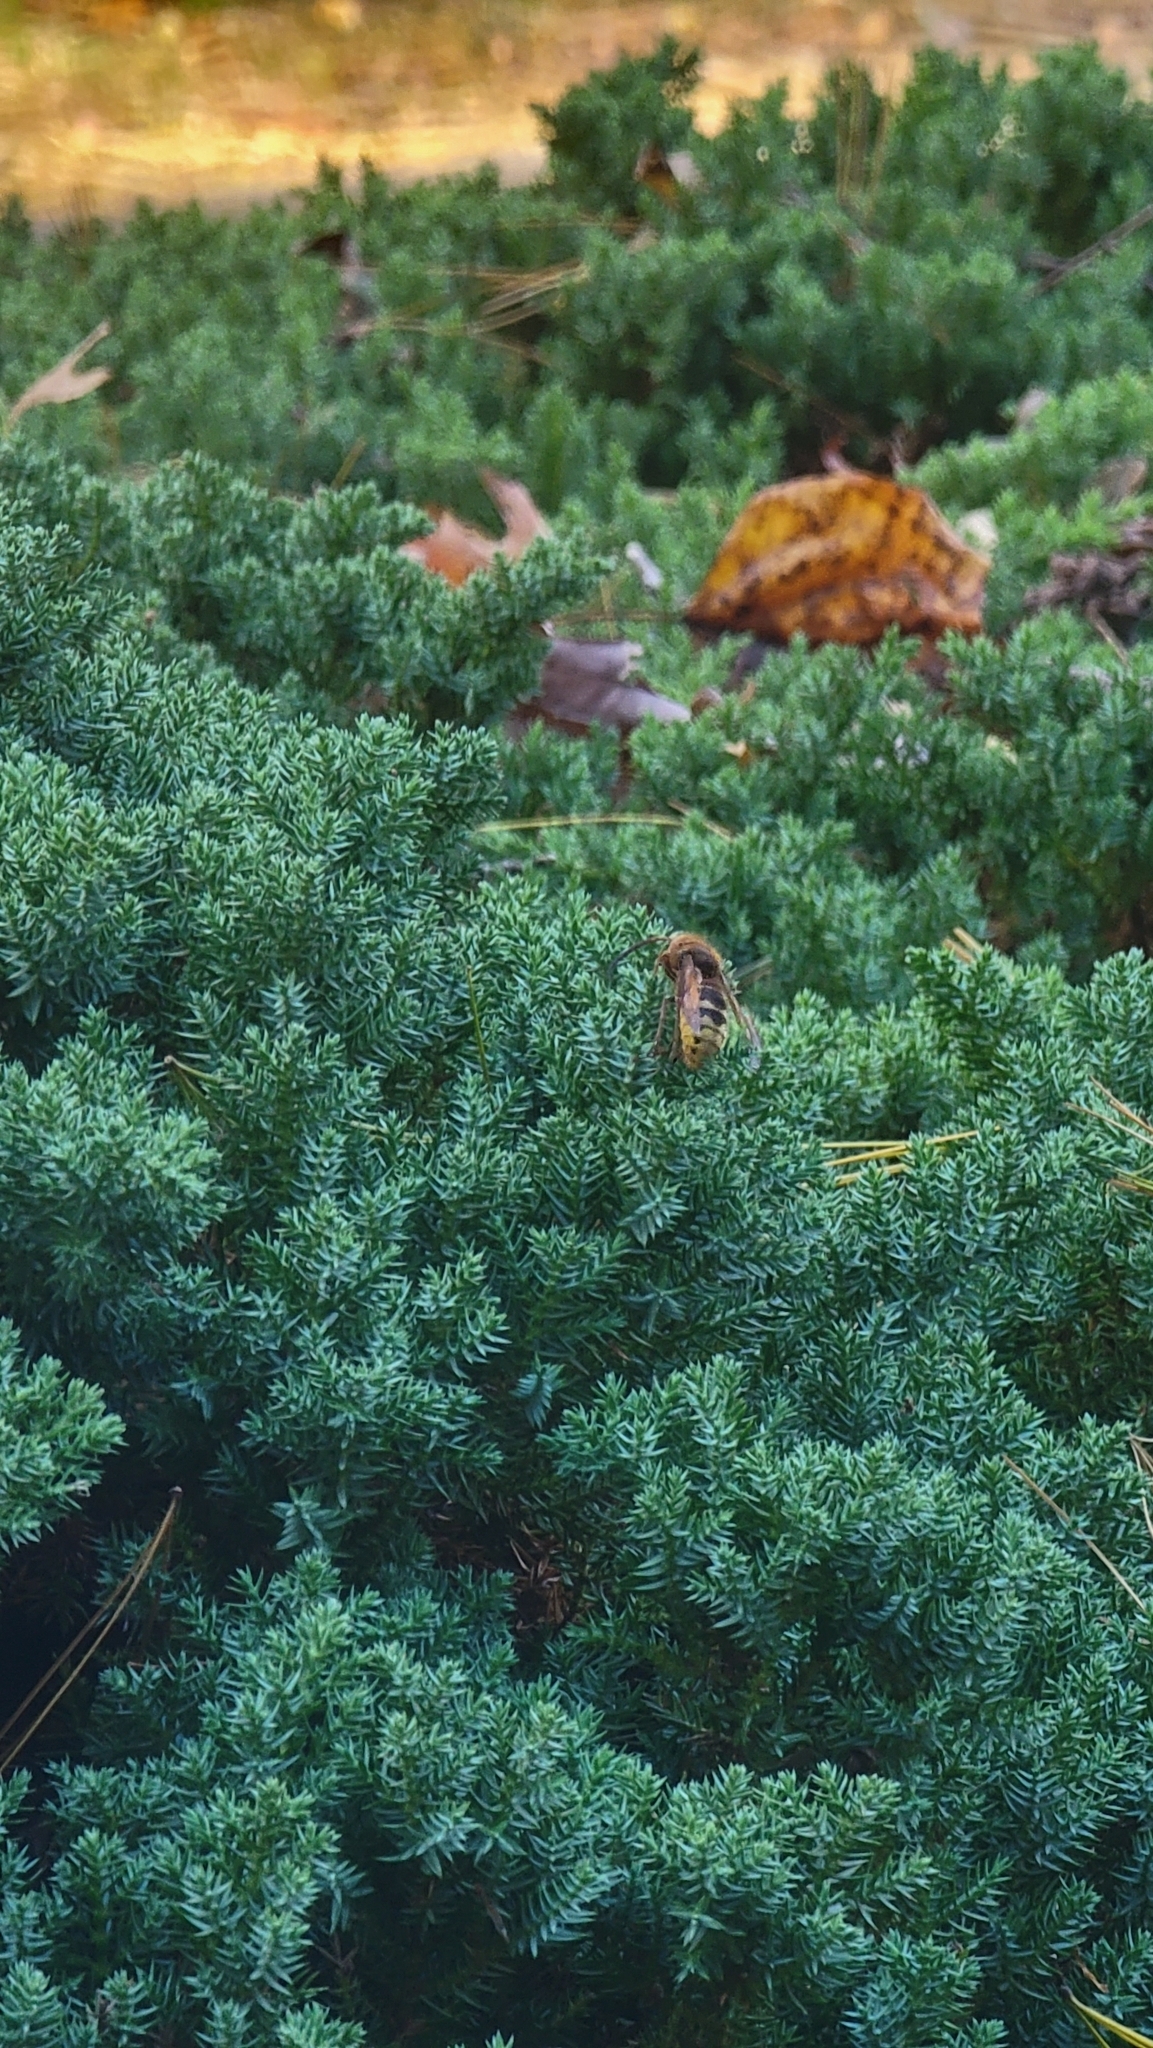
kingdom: Animalia
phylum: Arthropoda
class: Insecta
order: Hymenoptera
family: Vespidae
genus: Vespa
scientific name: Vespa crabro
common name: Hornet
